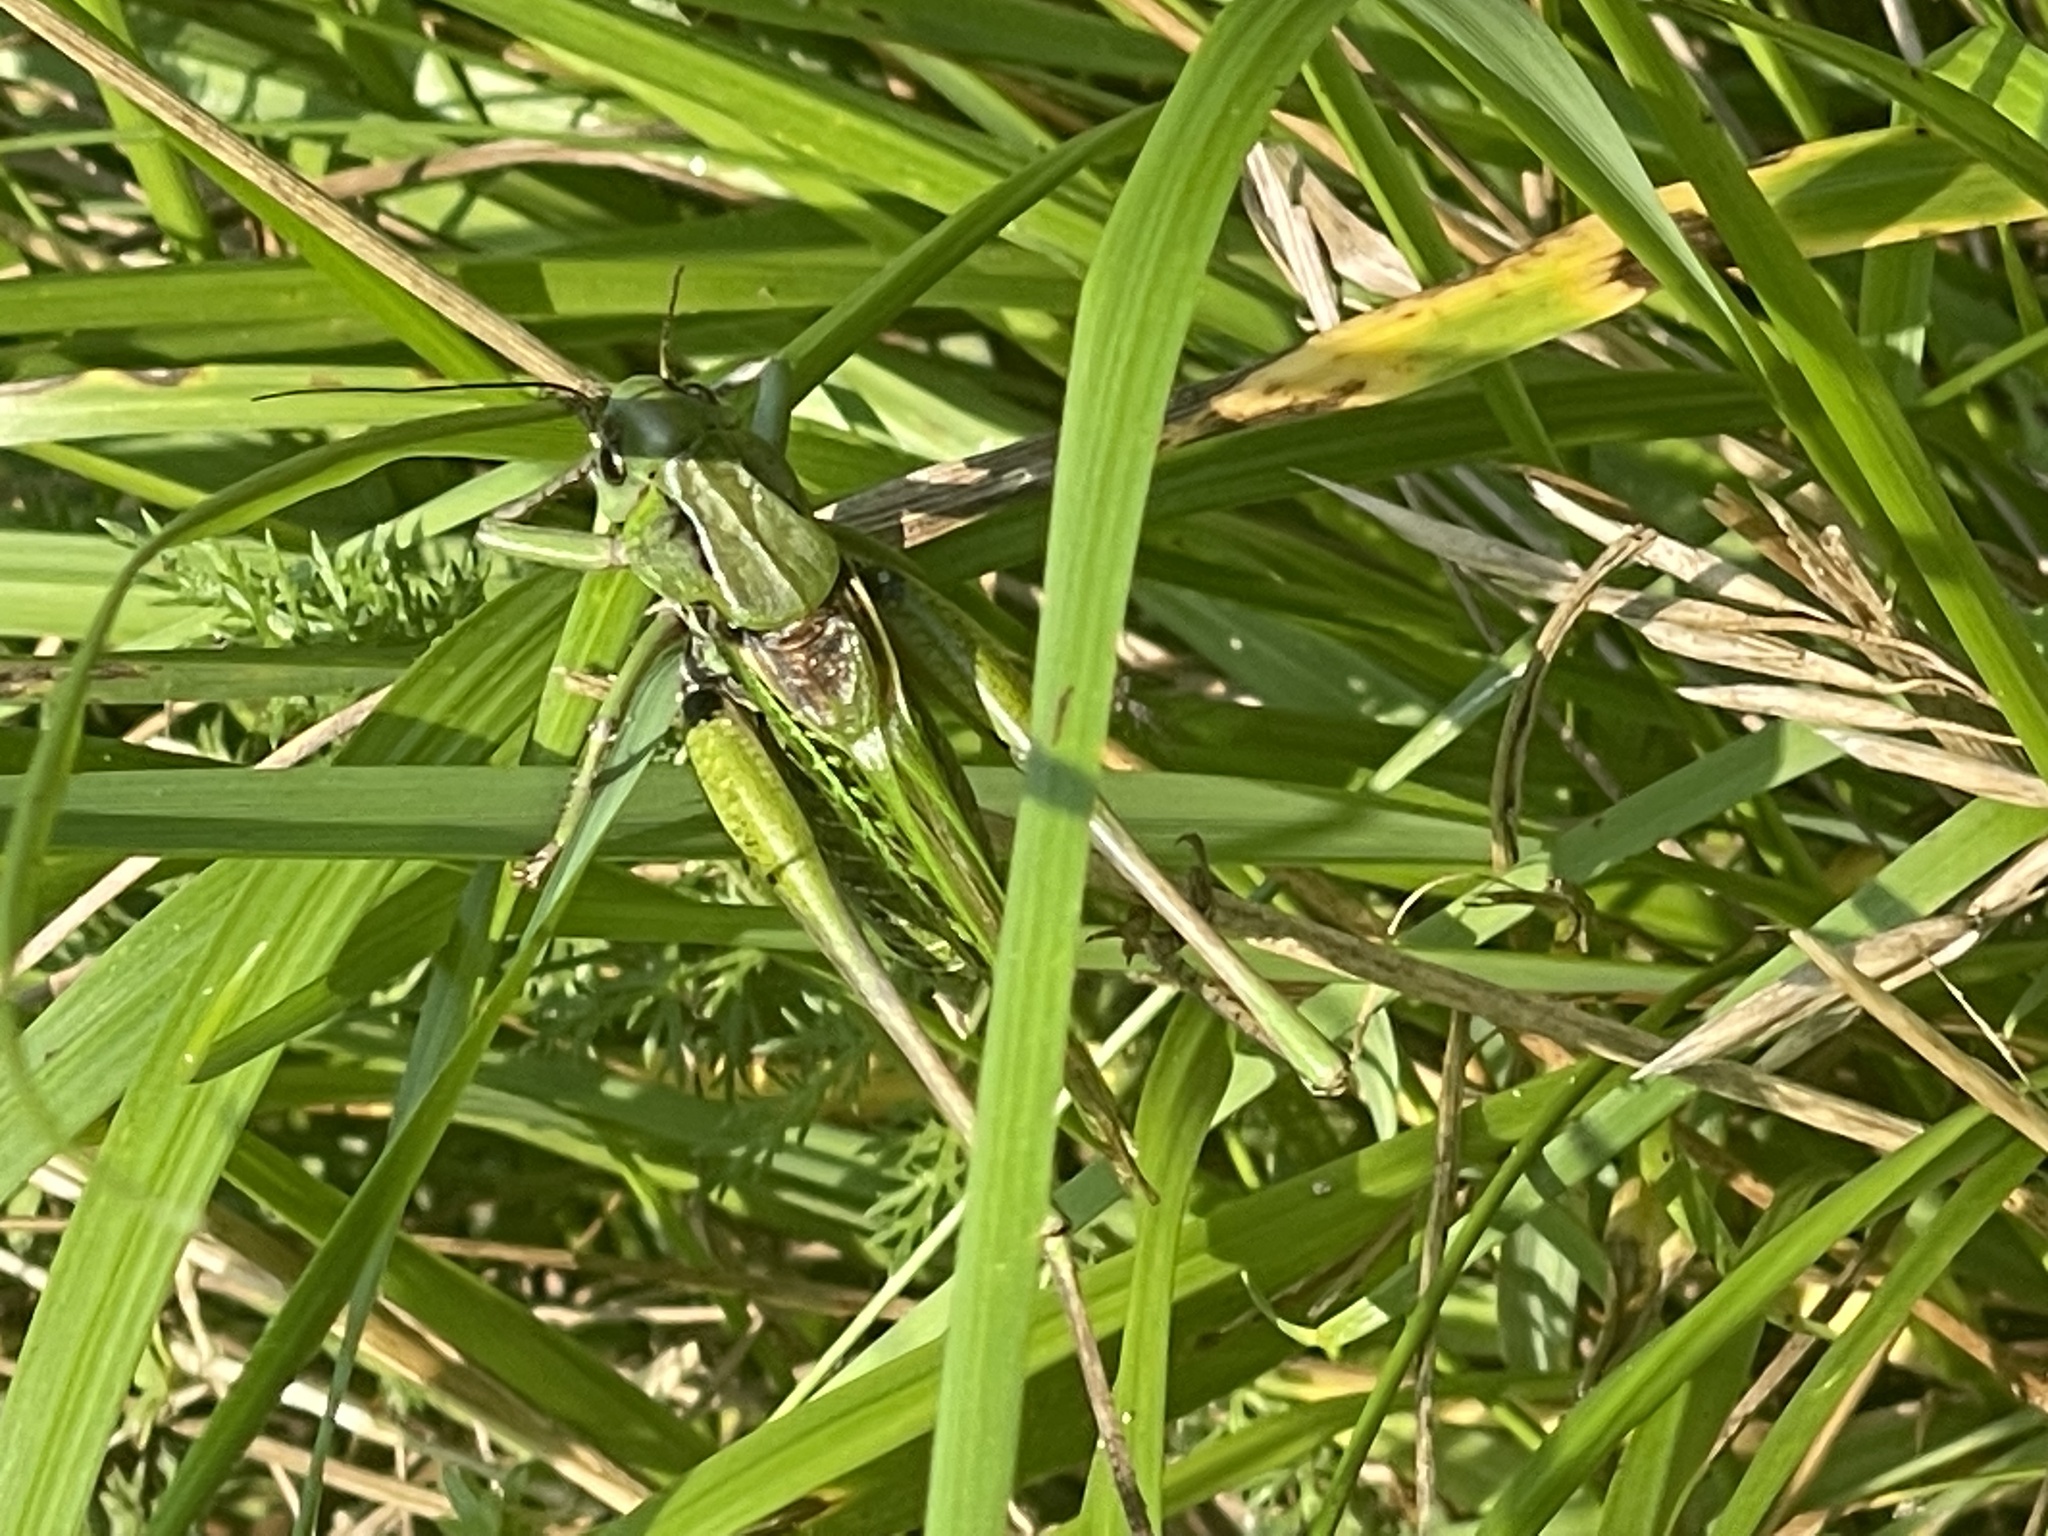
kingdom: Animalia
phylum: Arthropoda
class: Insecta
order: Orthoptera
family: Tettigoniidae
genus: Decticus
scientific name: Decticus verrucivorus
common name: Wart-biter
